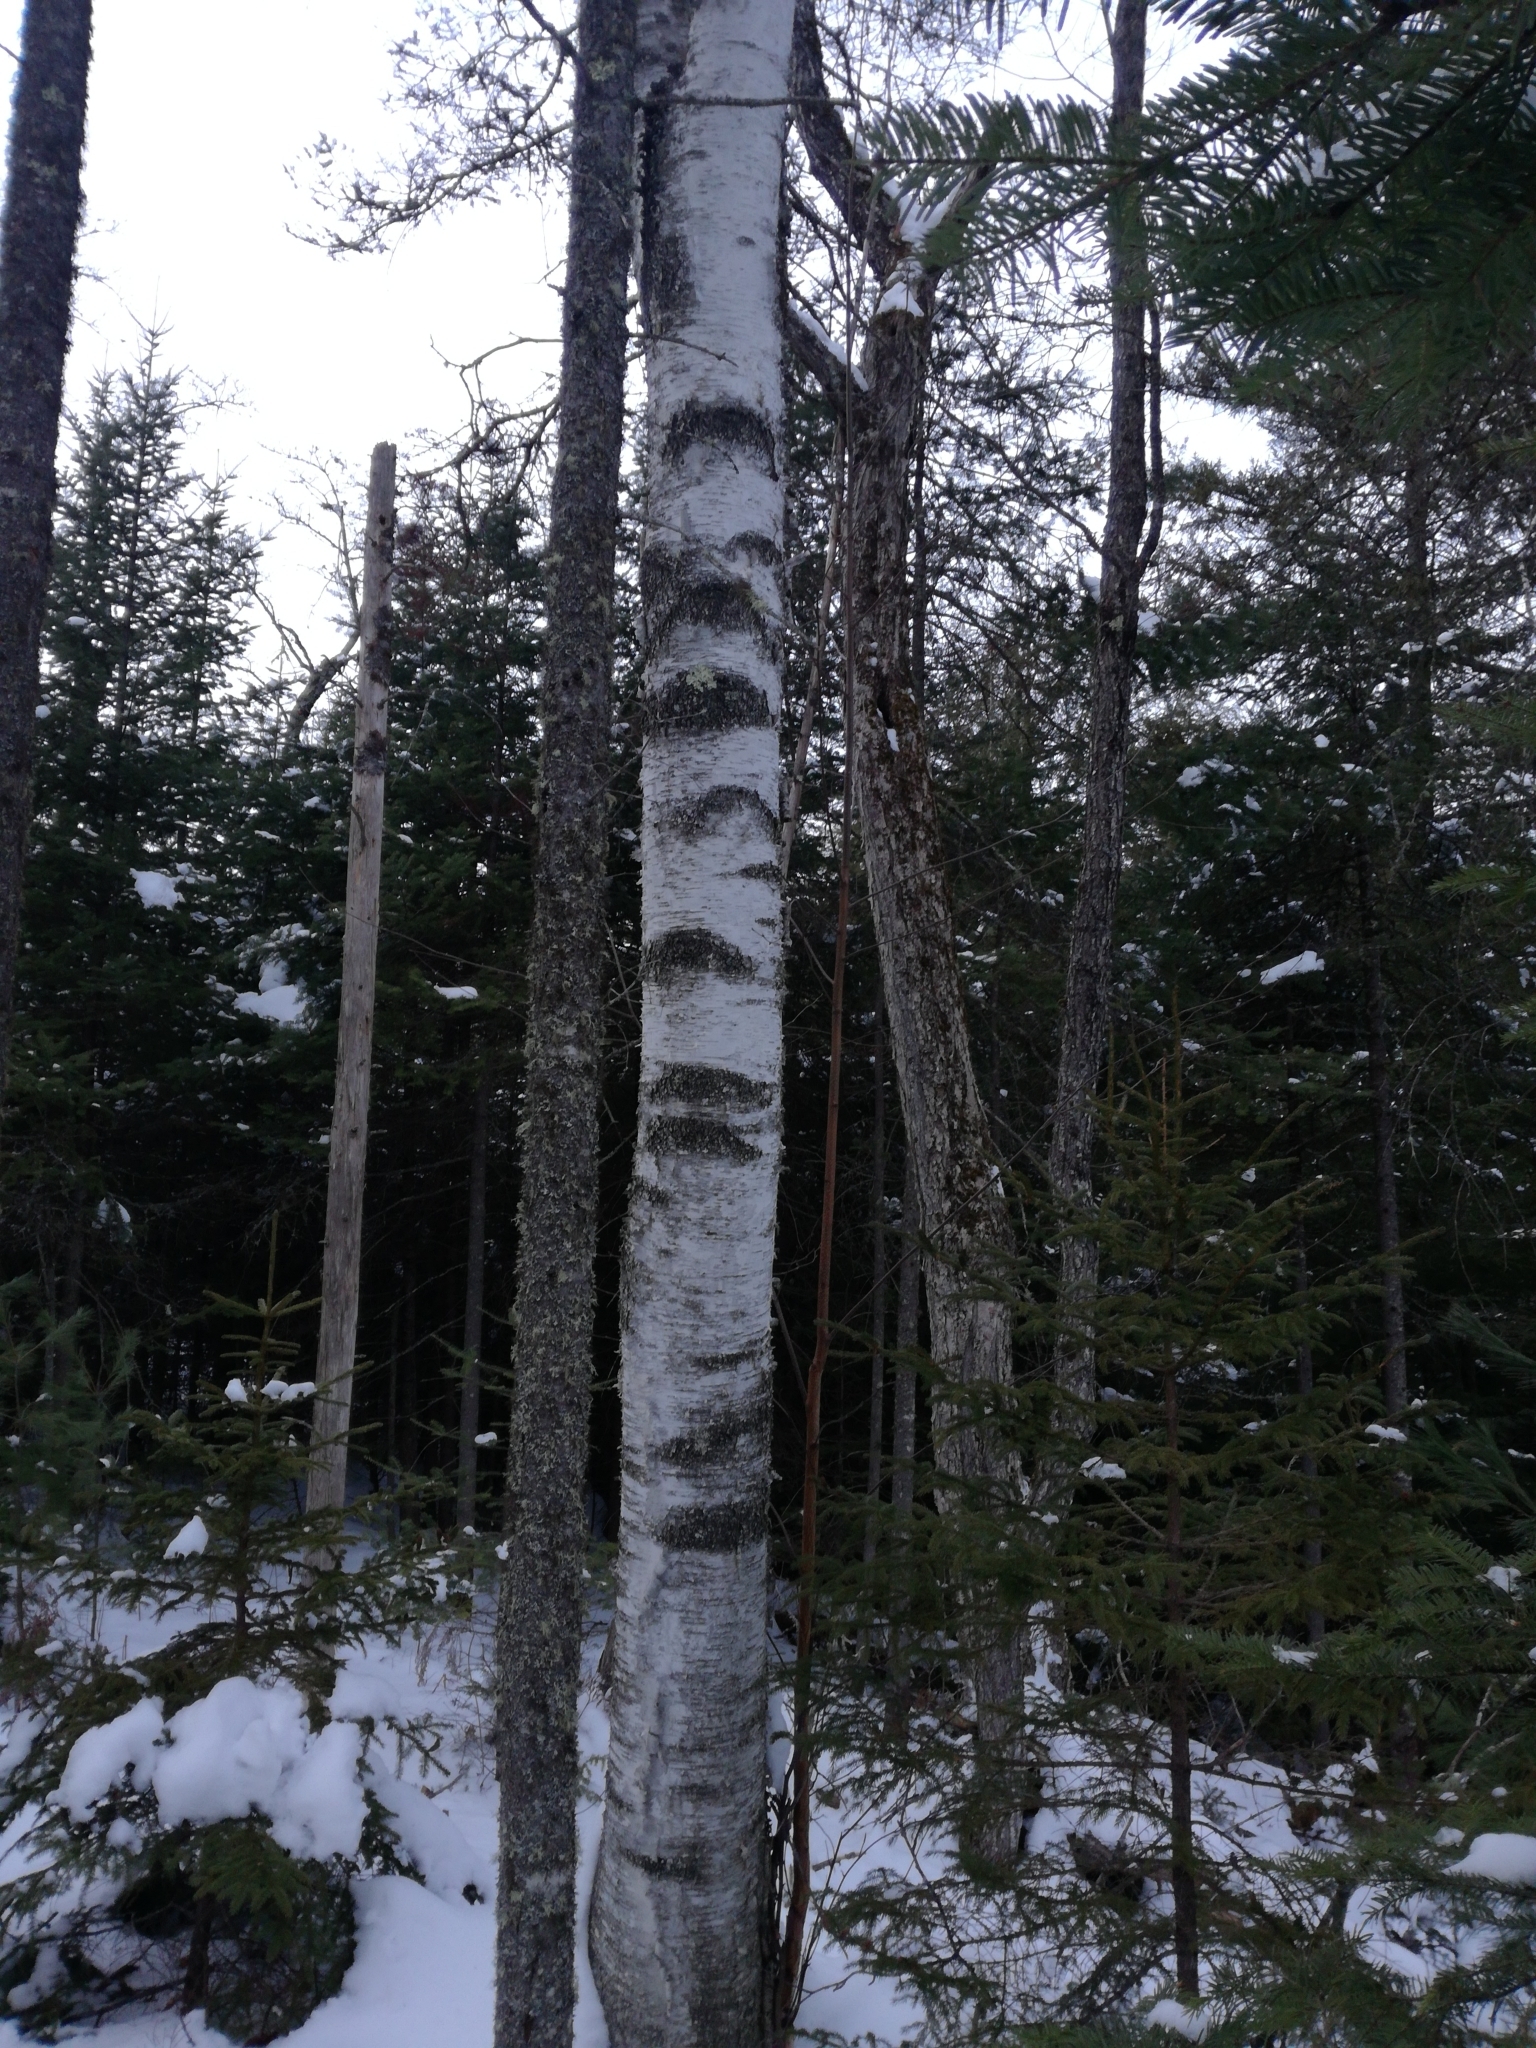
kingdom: Plantae
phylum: Tracheophyta
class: Magnoliopsida
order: Fagales
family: Betulaceae
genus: Betula
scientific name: Betula populifolia
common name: Fire birch
